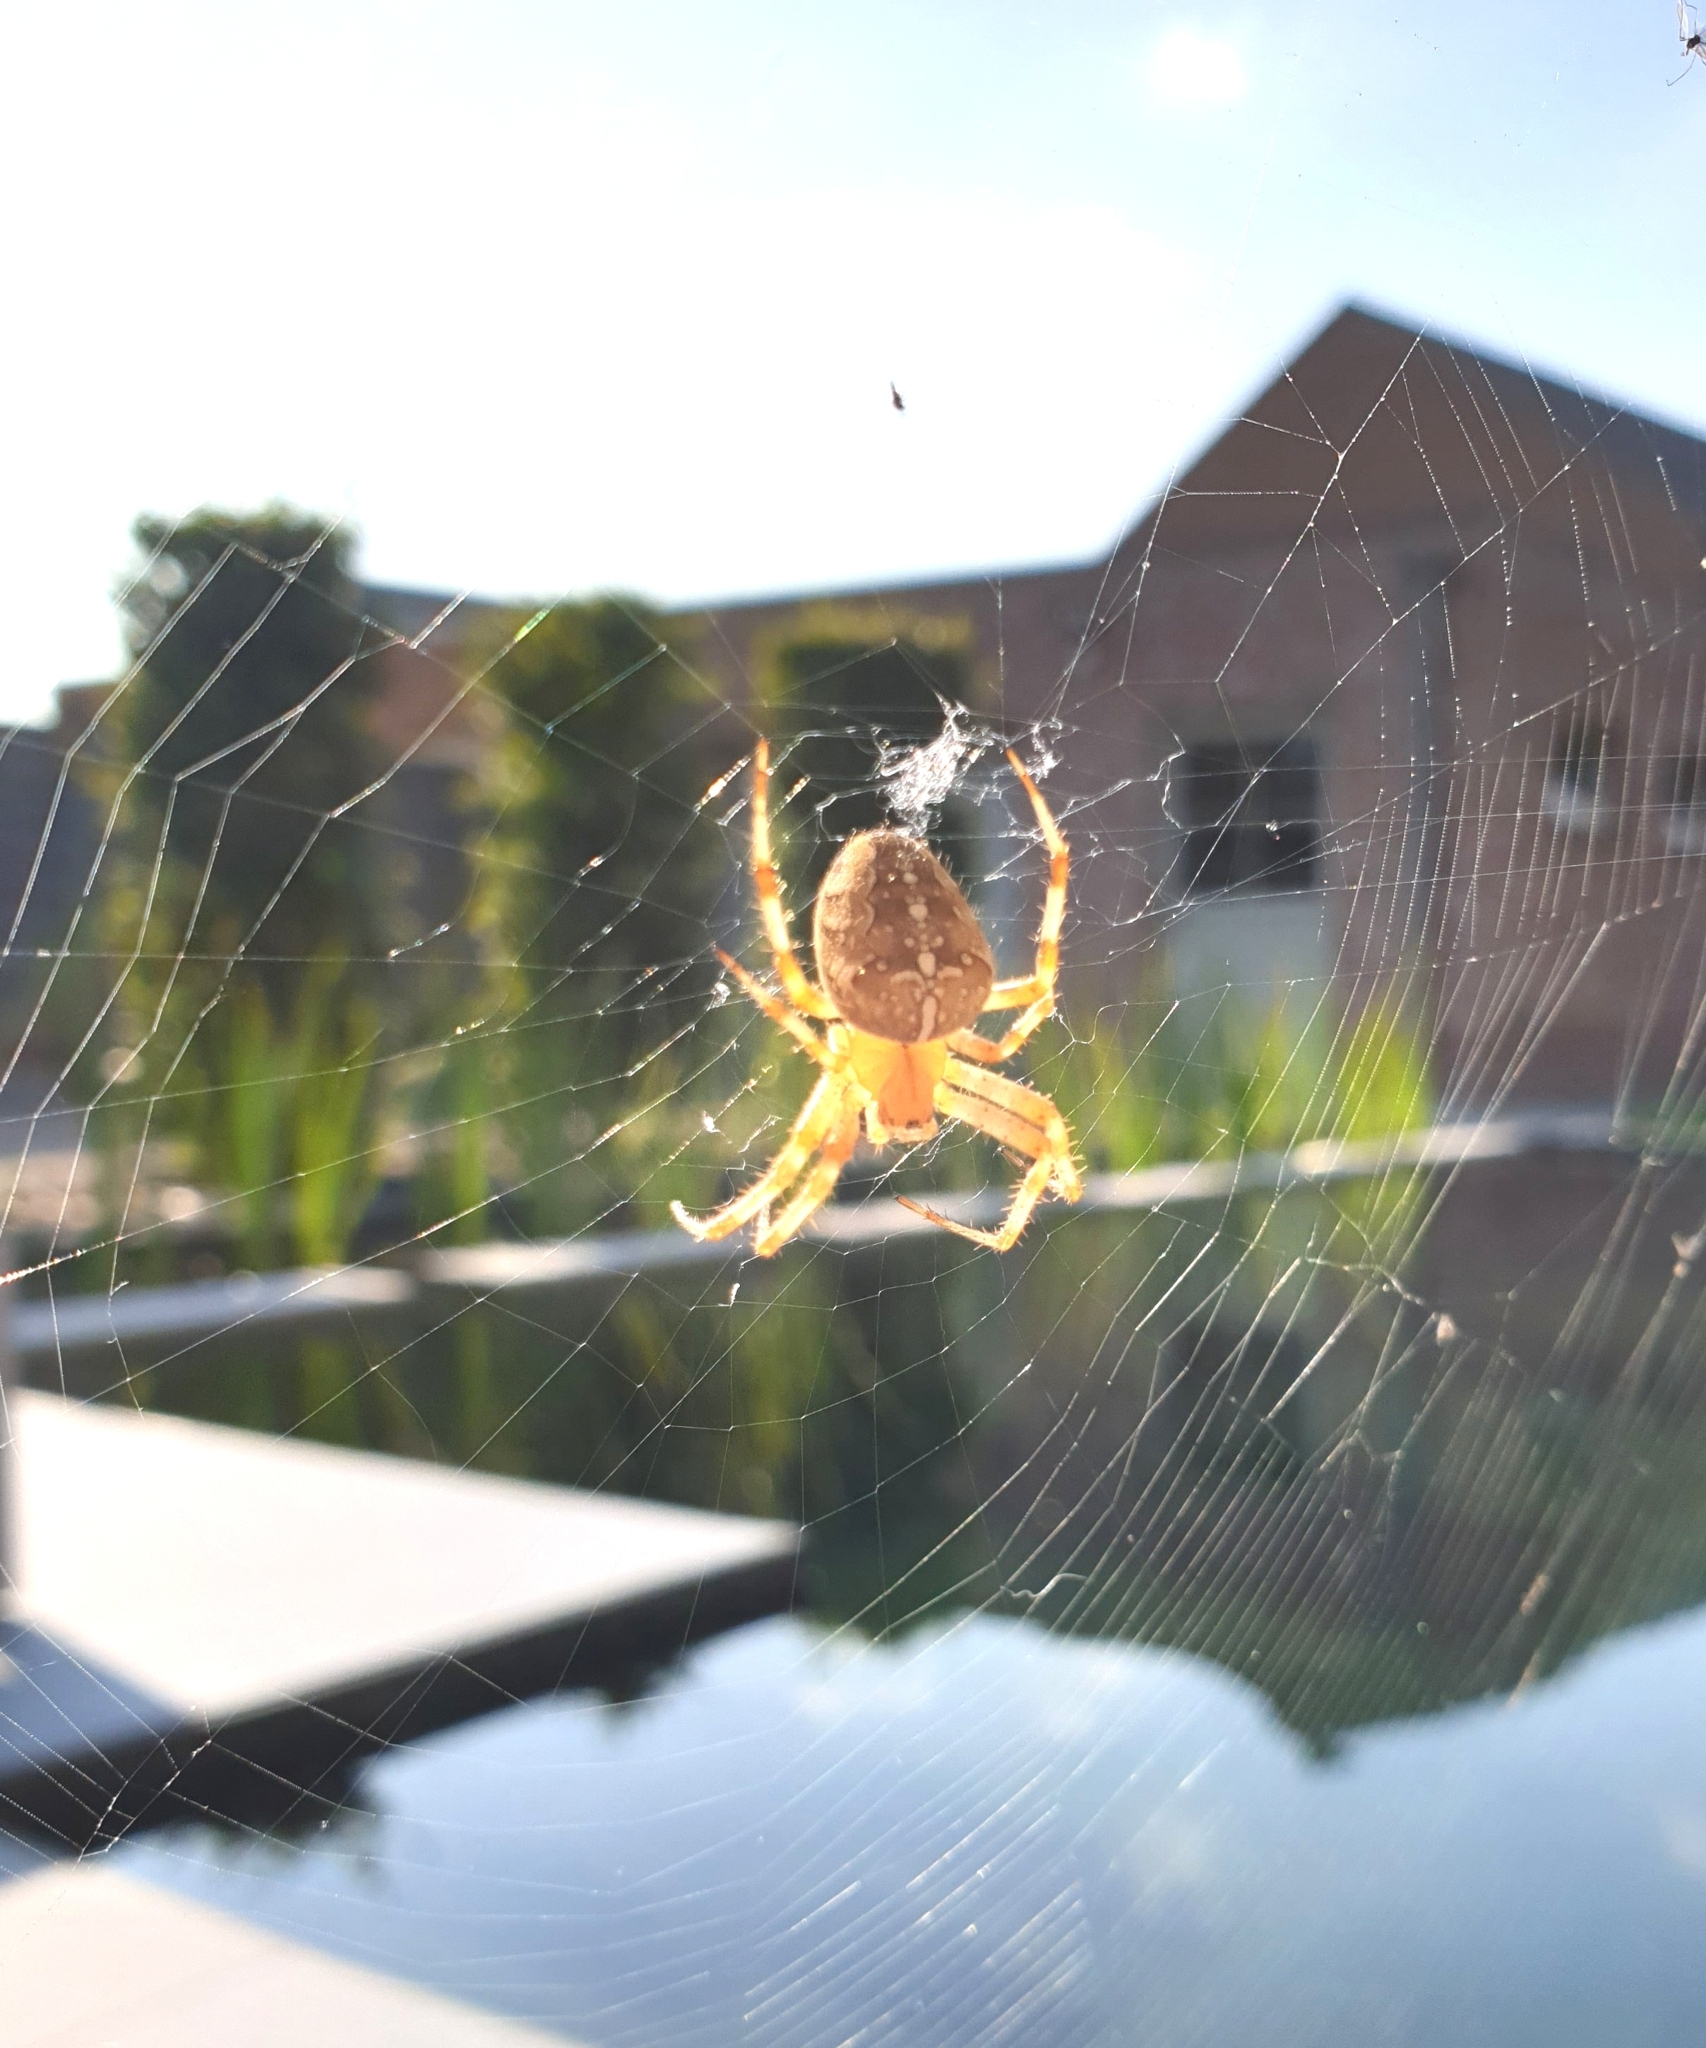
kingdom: Animalia
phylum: Arthropoda
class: Arachnida
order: Araneae
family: Araneidae
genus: Araneus
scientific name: Araneus diadematus
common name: Cross orbweaver
